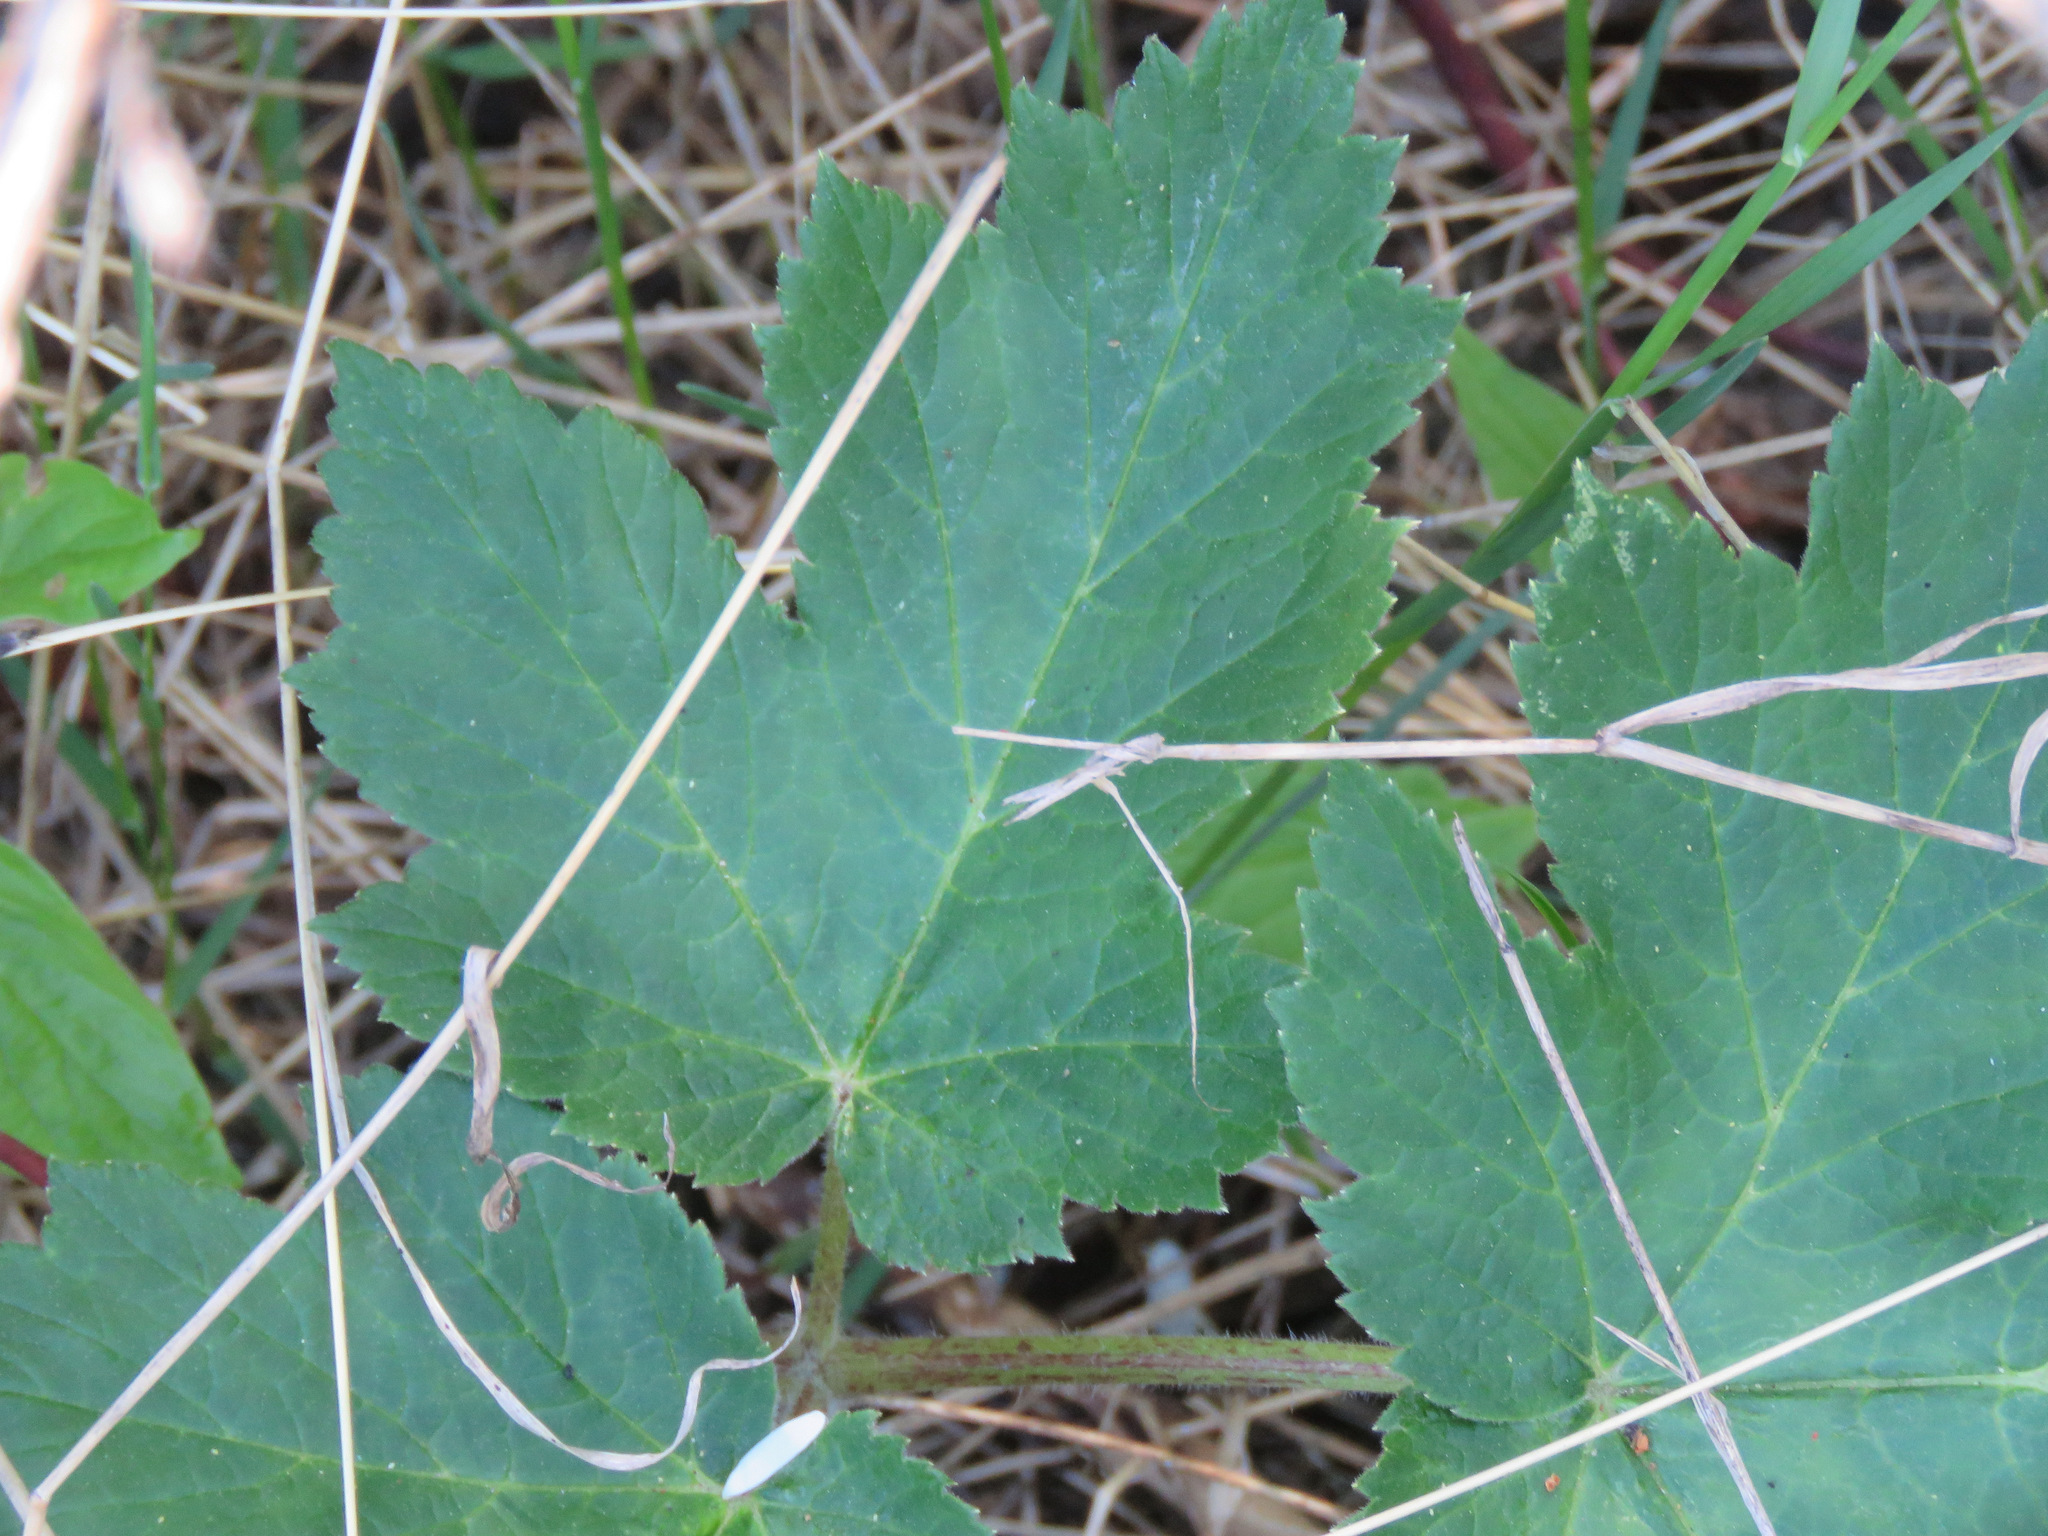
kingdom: Plantae
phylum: Tracheophyta
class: Magnoliopsida
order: Apiales
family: Apiaceae
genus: Heracleum
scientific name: Heracleum maximum
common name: American cow parsnip
